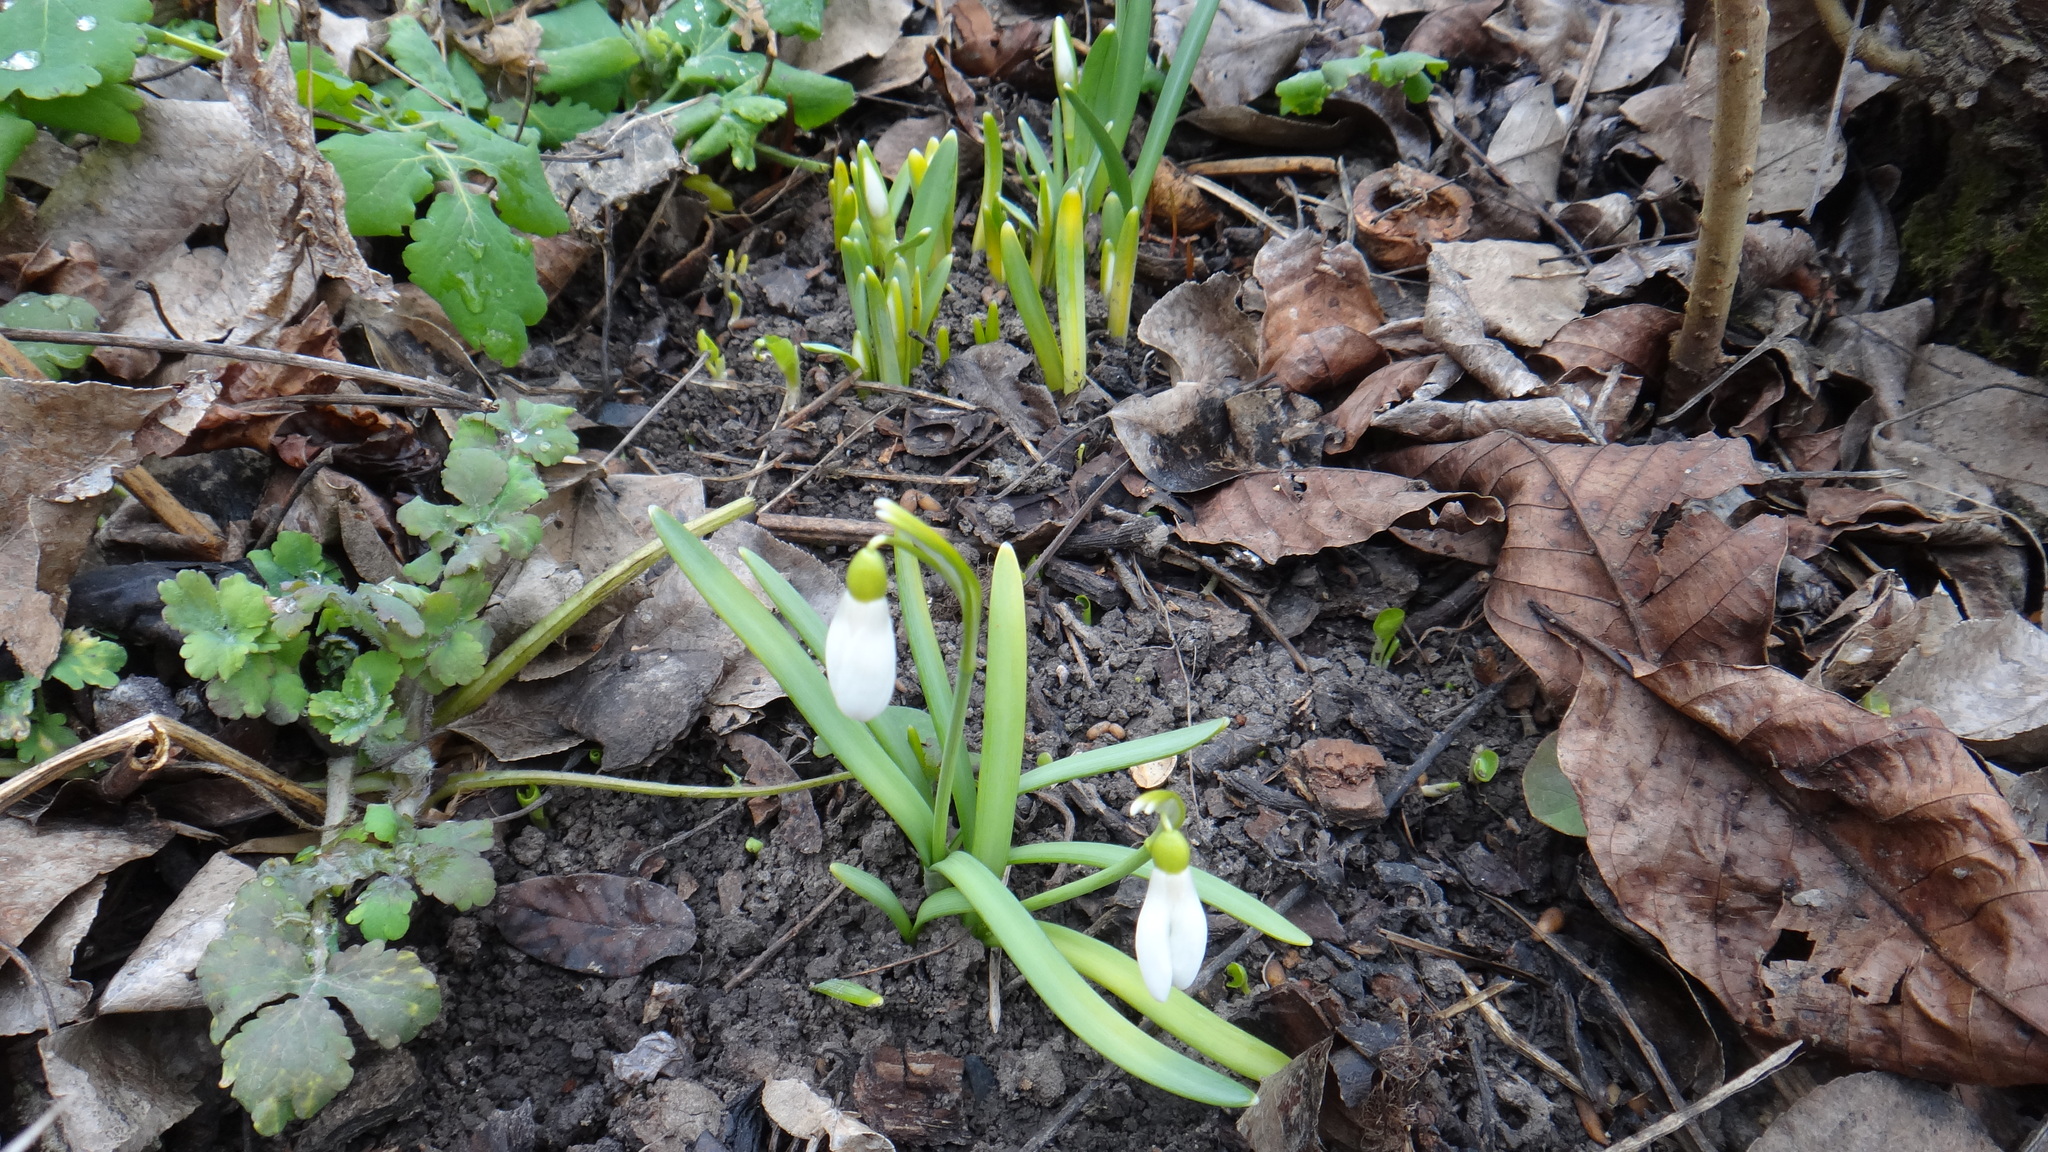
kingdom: Plantae
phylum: Tracheophyta
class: Liliopsida
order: Asparagales
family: Amaryllidaceae
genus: Galanthus
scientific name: Galanthus nivalis
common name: Snowdrop
